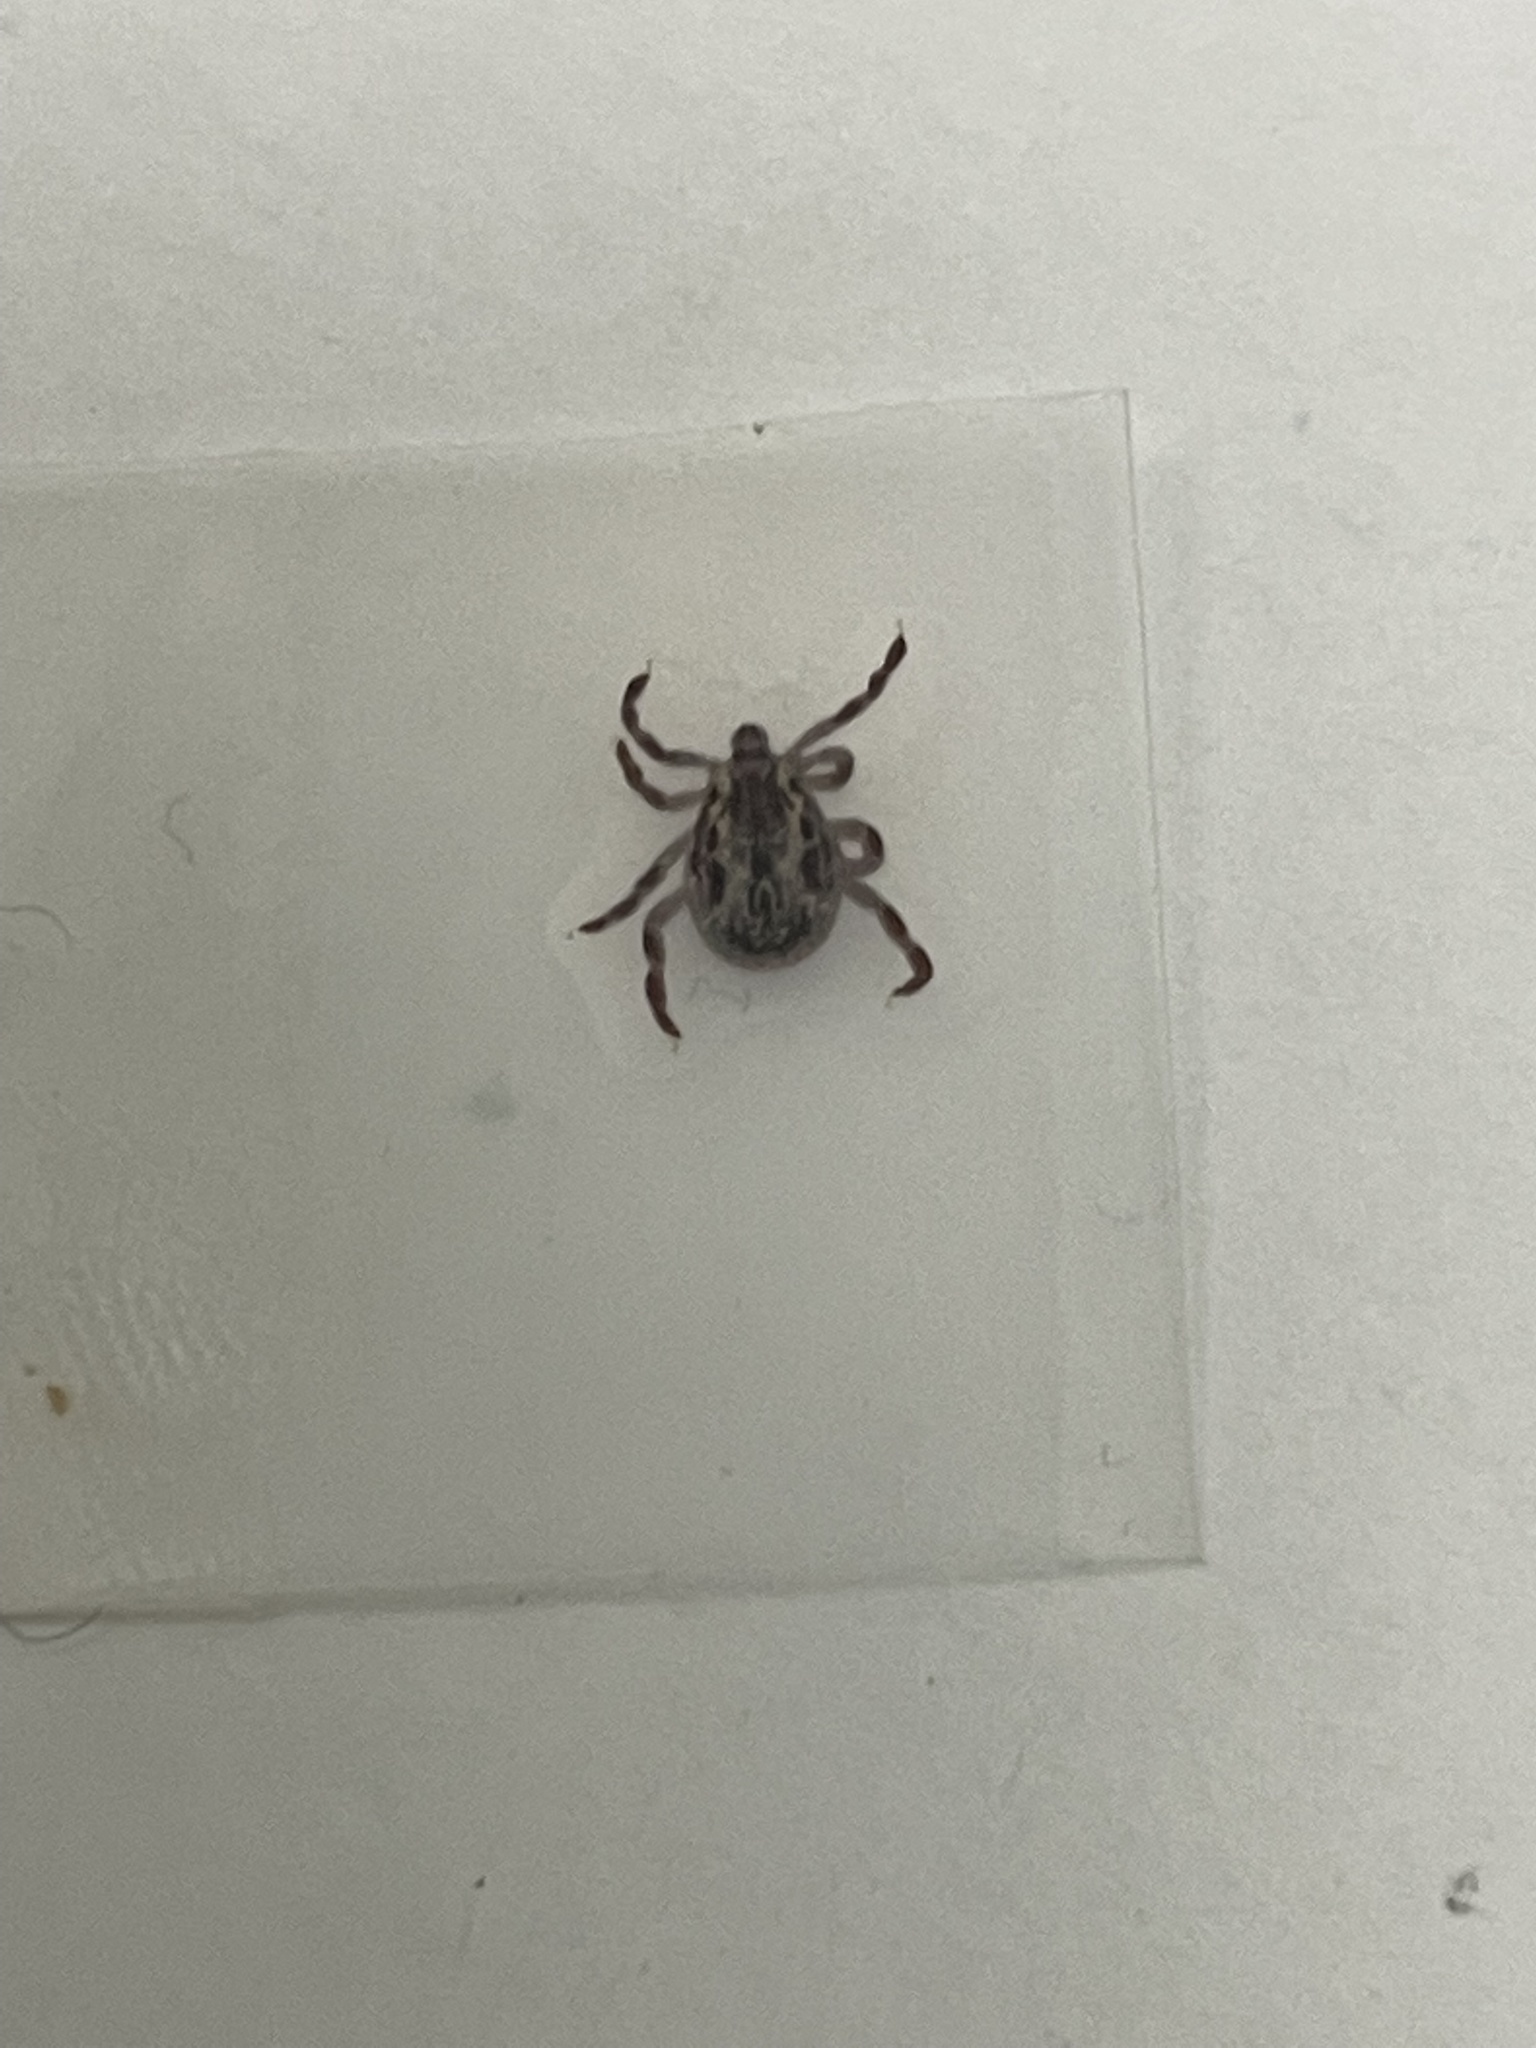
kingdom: Animalia
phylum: Arthropoda
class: Arachnida
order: Ixodida
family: Ixodidae
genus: Dermacentor
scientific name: Dermacentor variabilis
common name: American dog tick
